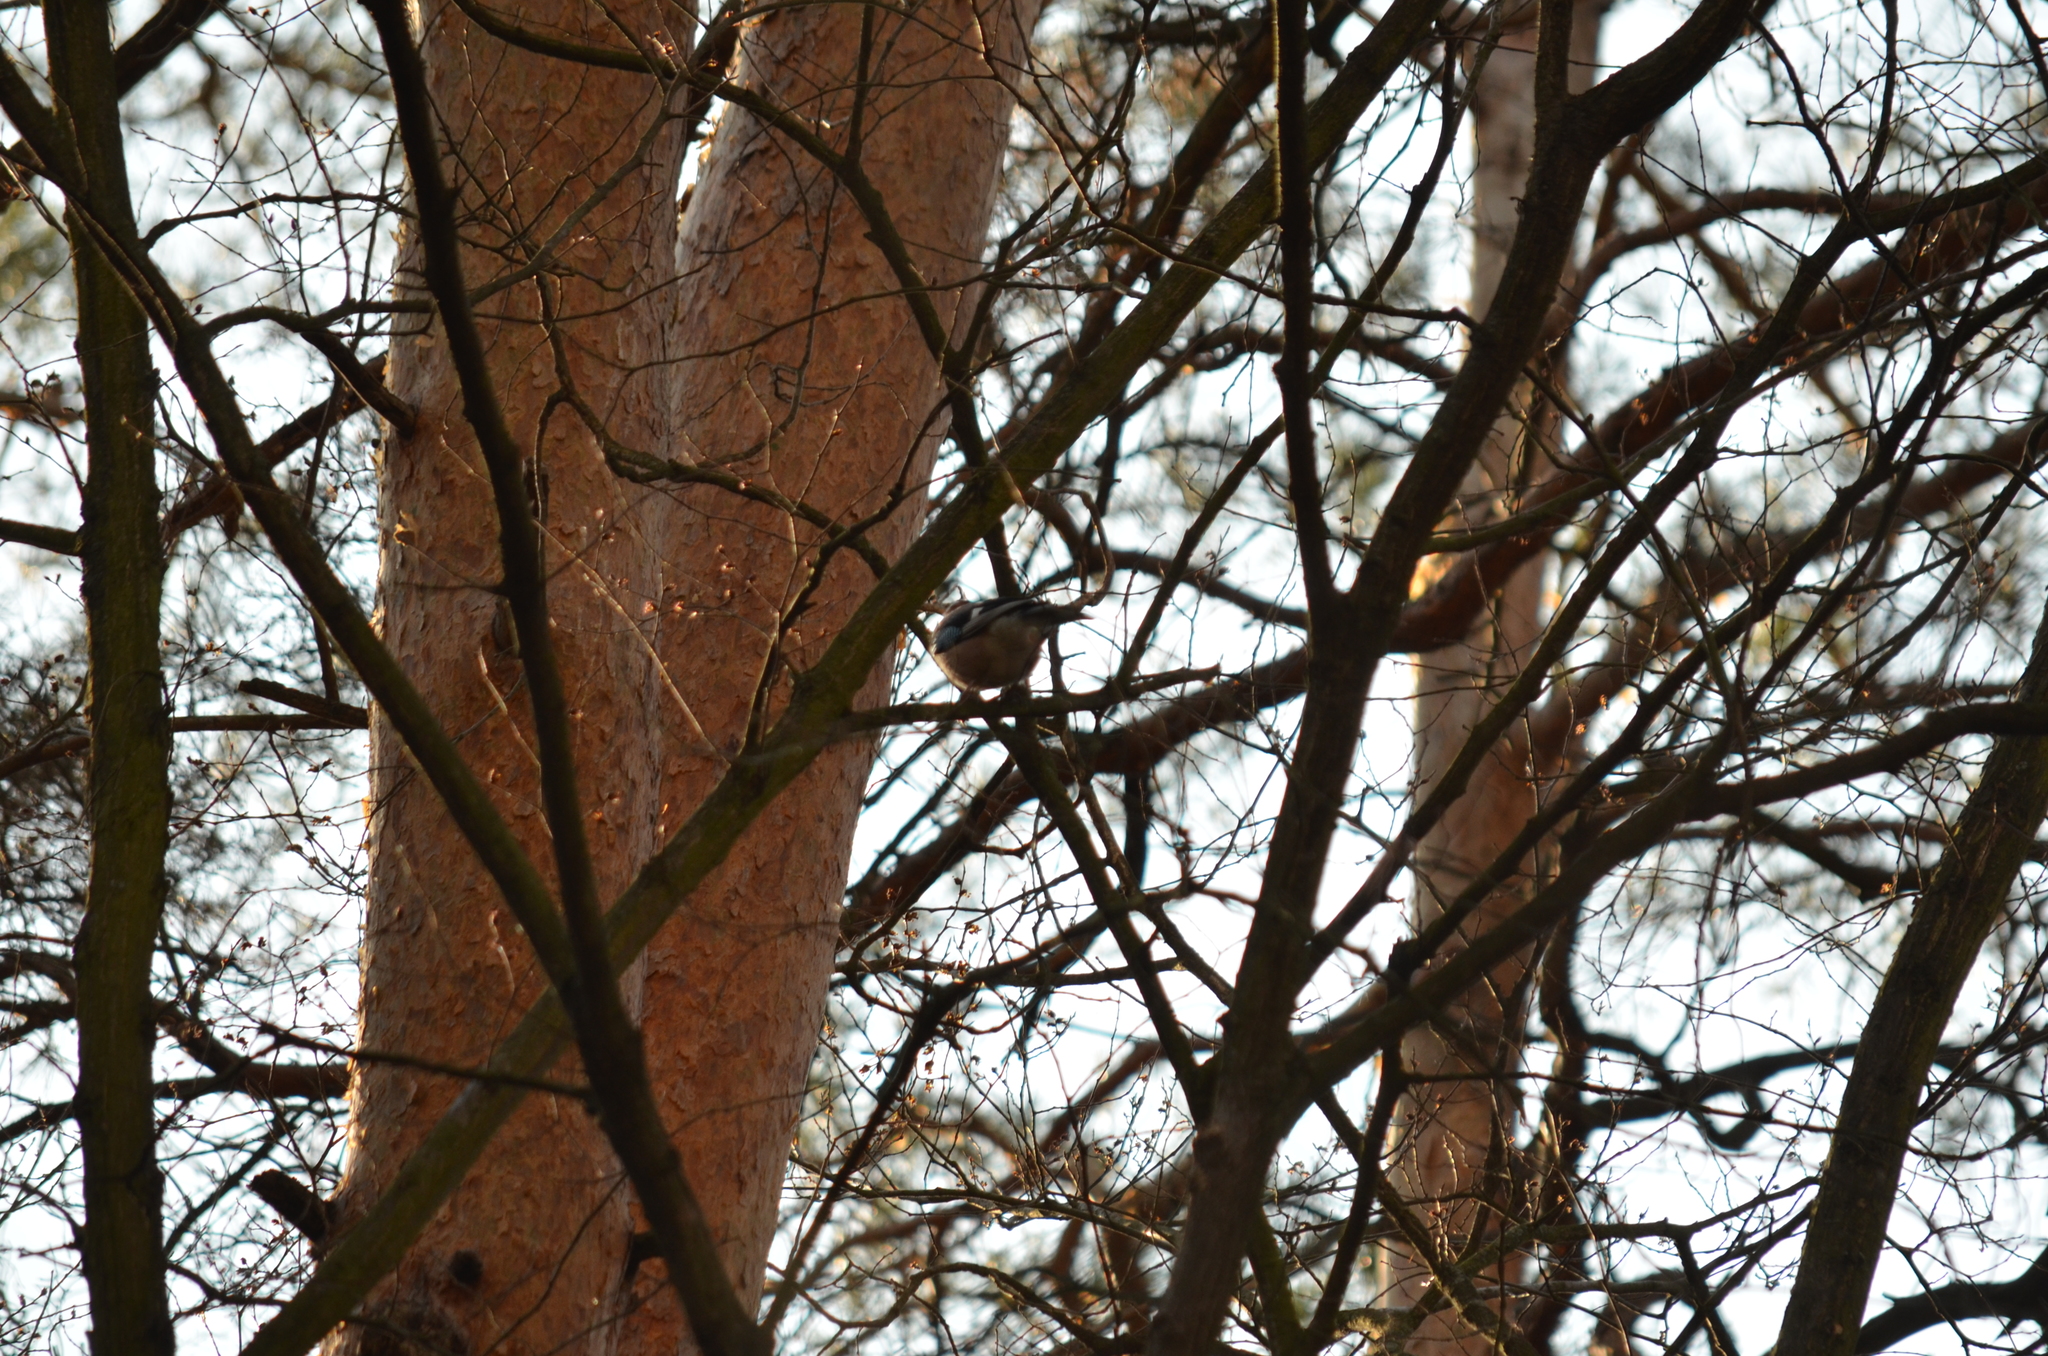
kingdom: Animalia
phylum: Chordata
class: Aves
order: Passeriformes
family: Corvidae
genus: Garrulus
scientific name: Garrulus glandarius
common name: Eurasian jay
